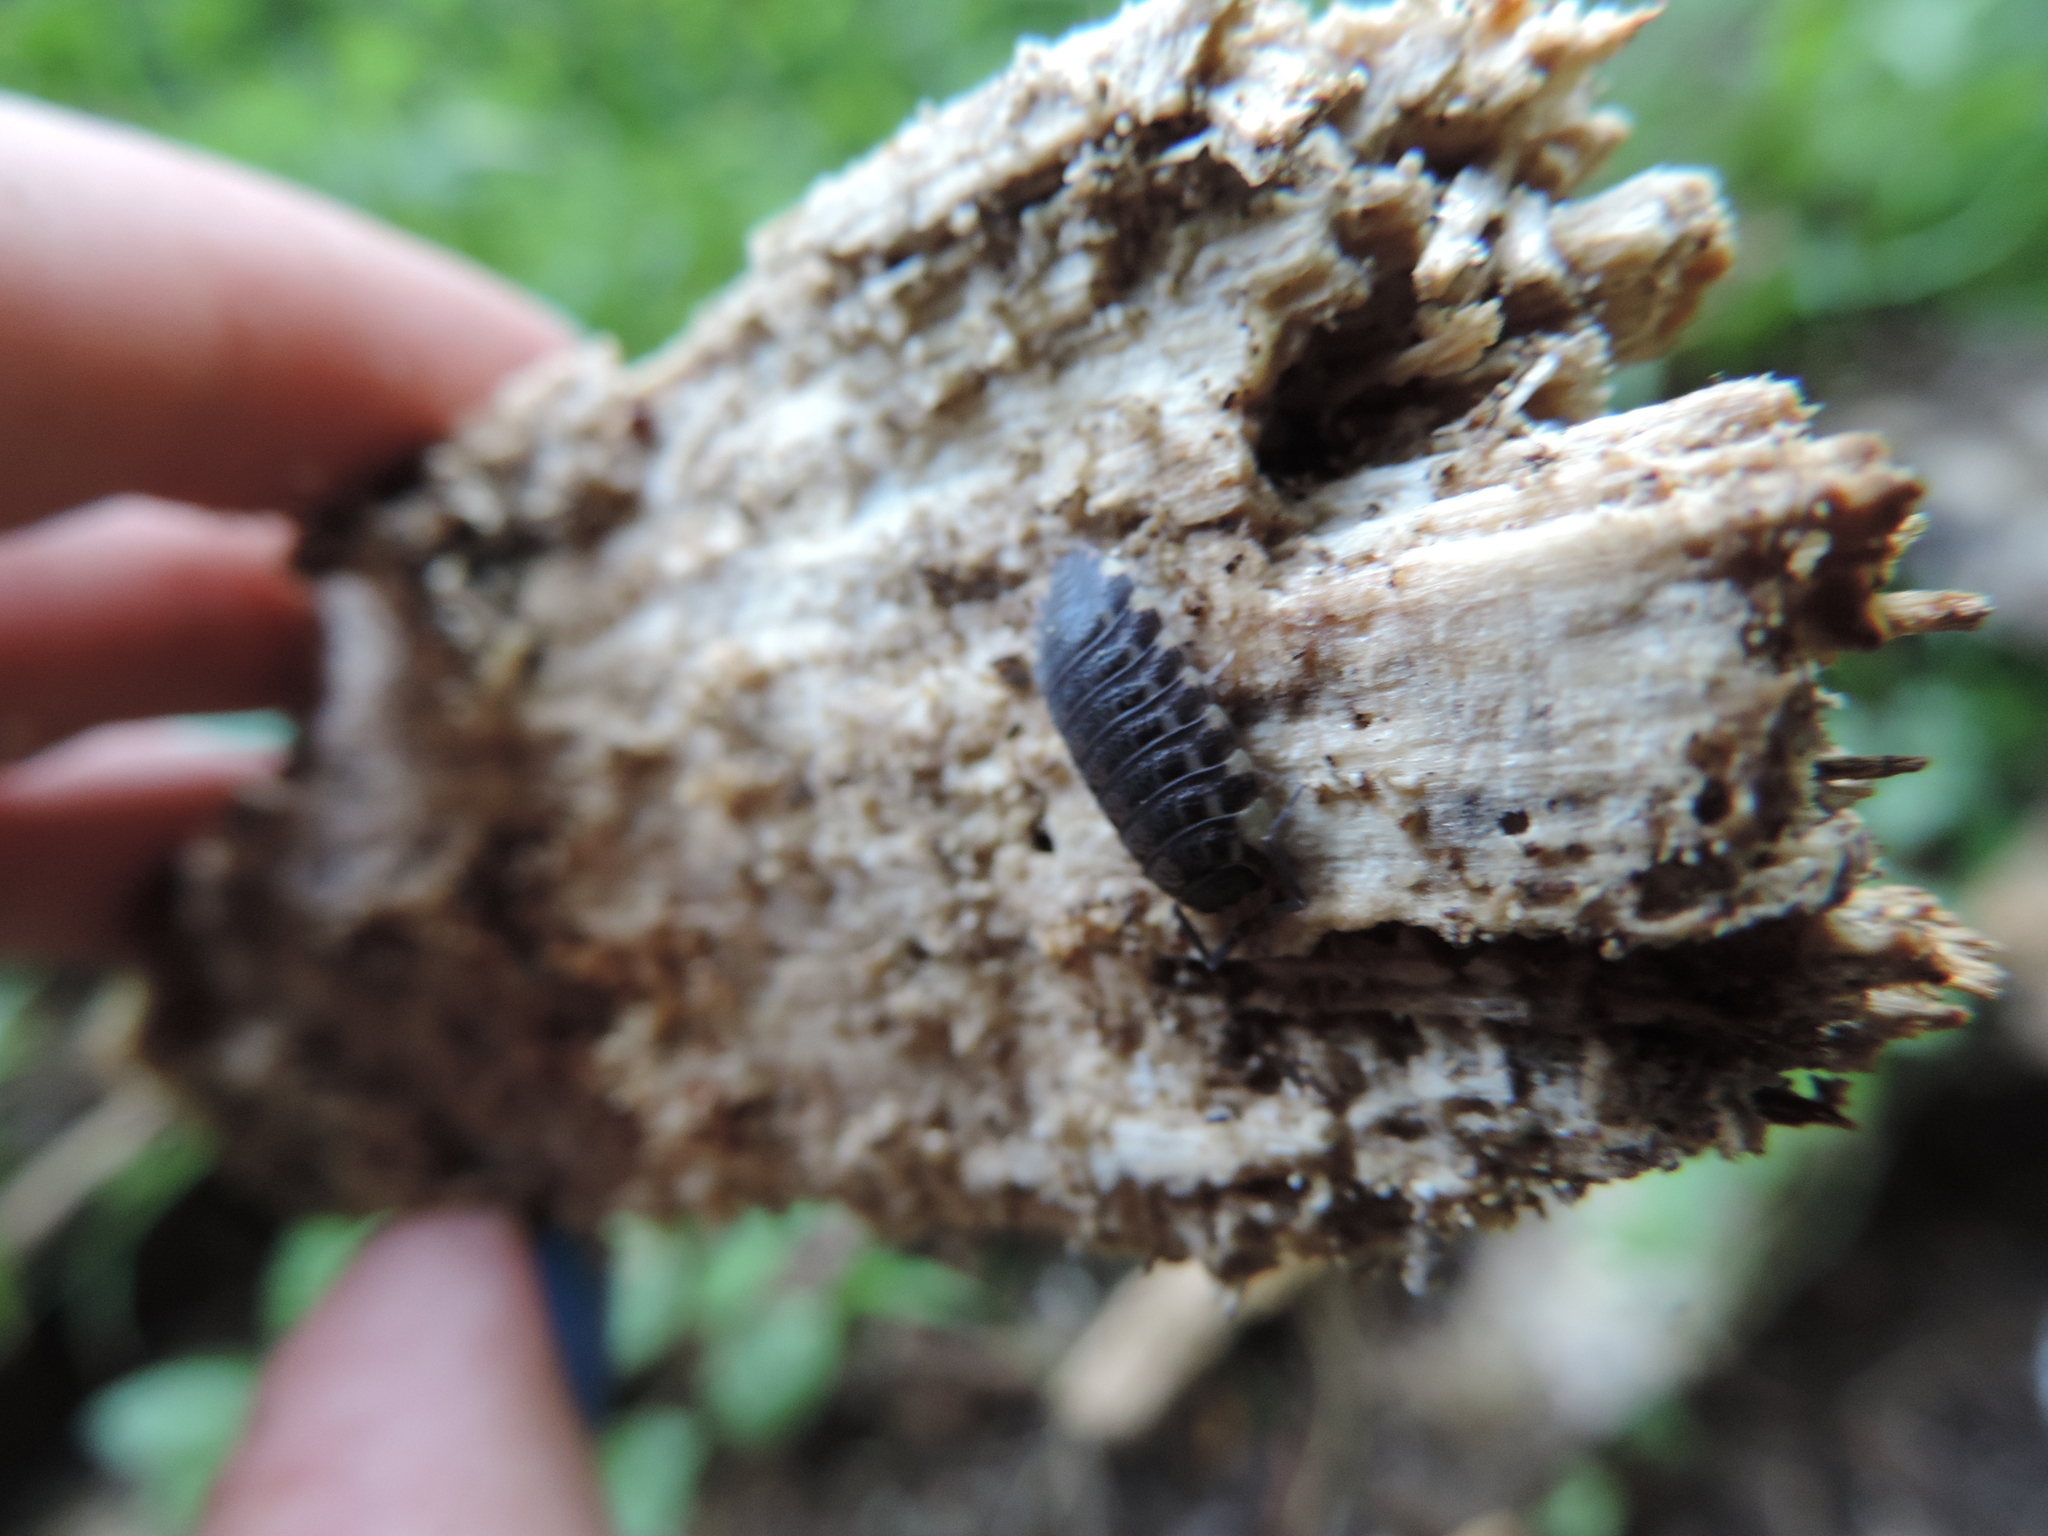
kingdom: Animalia
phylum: Arthropoda
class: Malacostraca
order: Isopoda
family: Trachelipodidae
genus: Trachelipus
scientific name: Trachelipus lutshnikii
